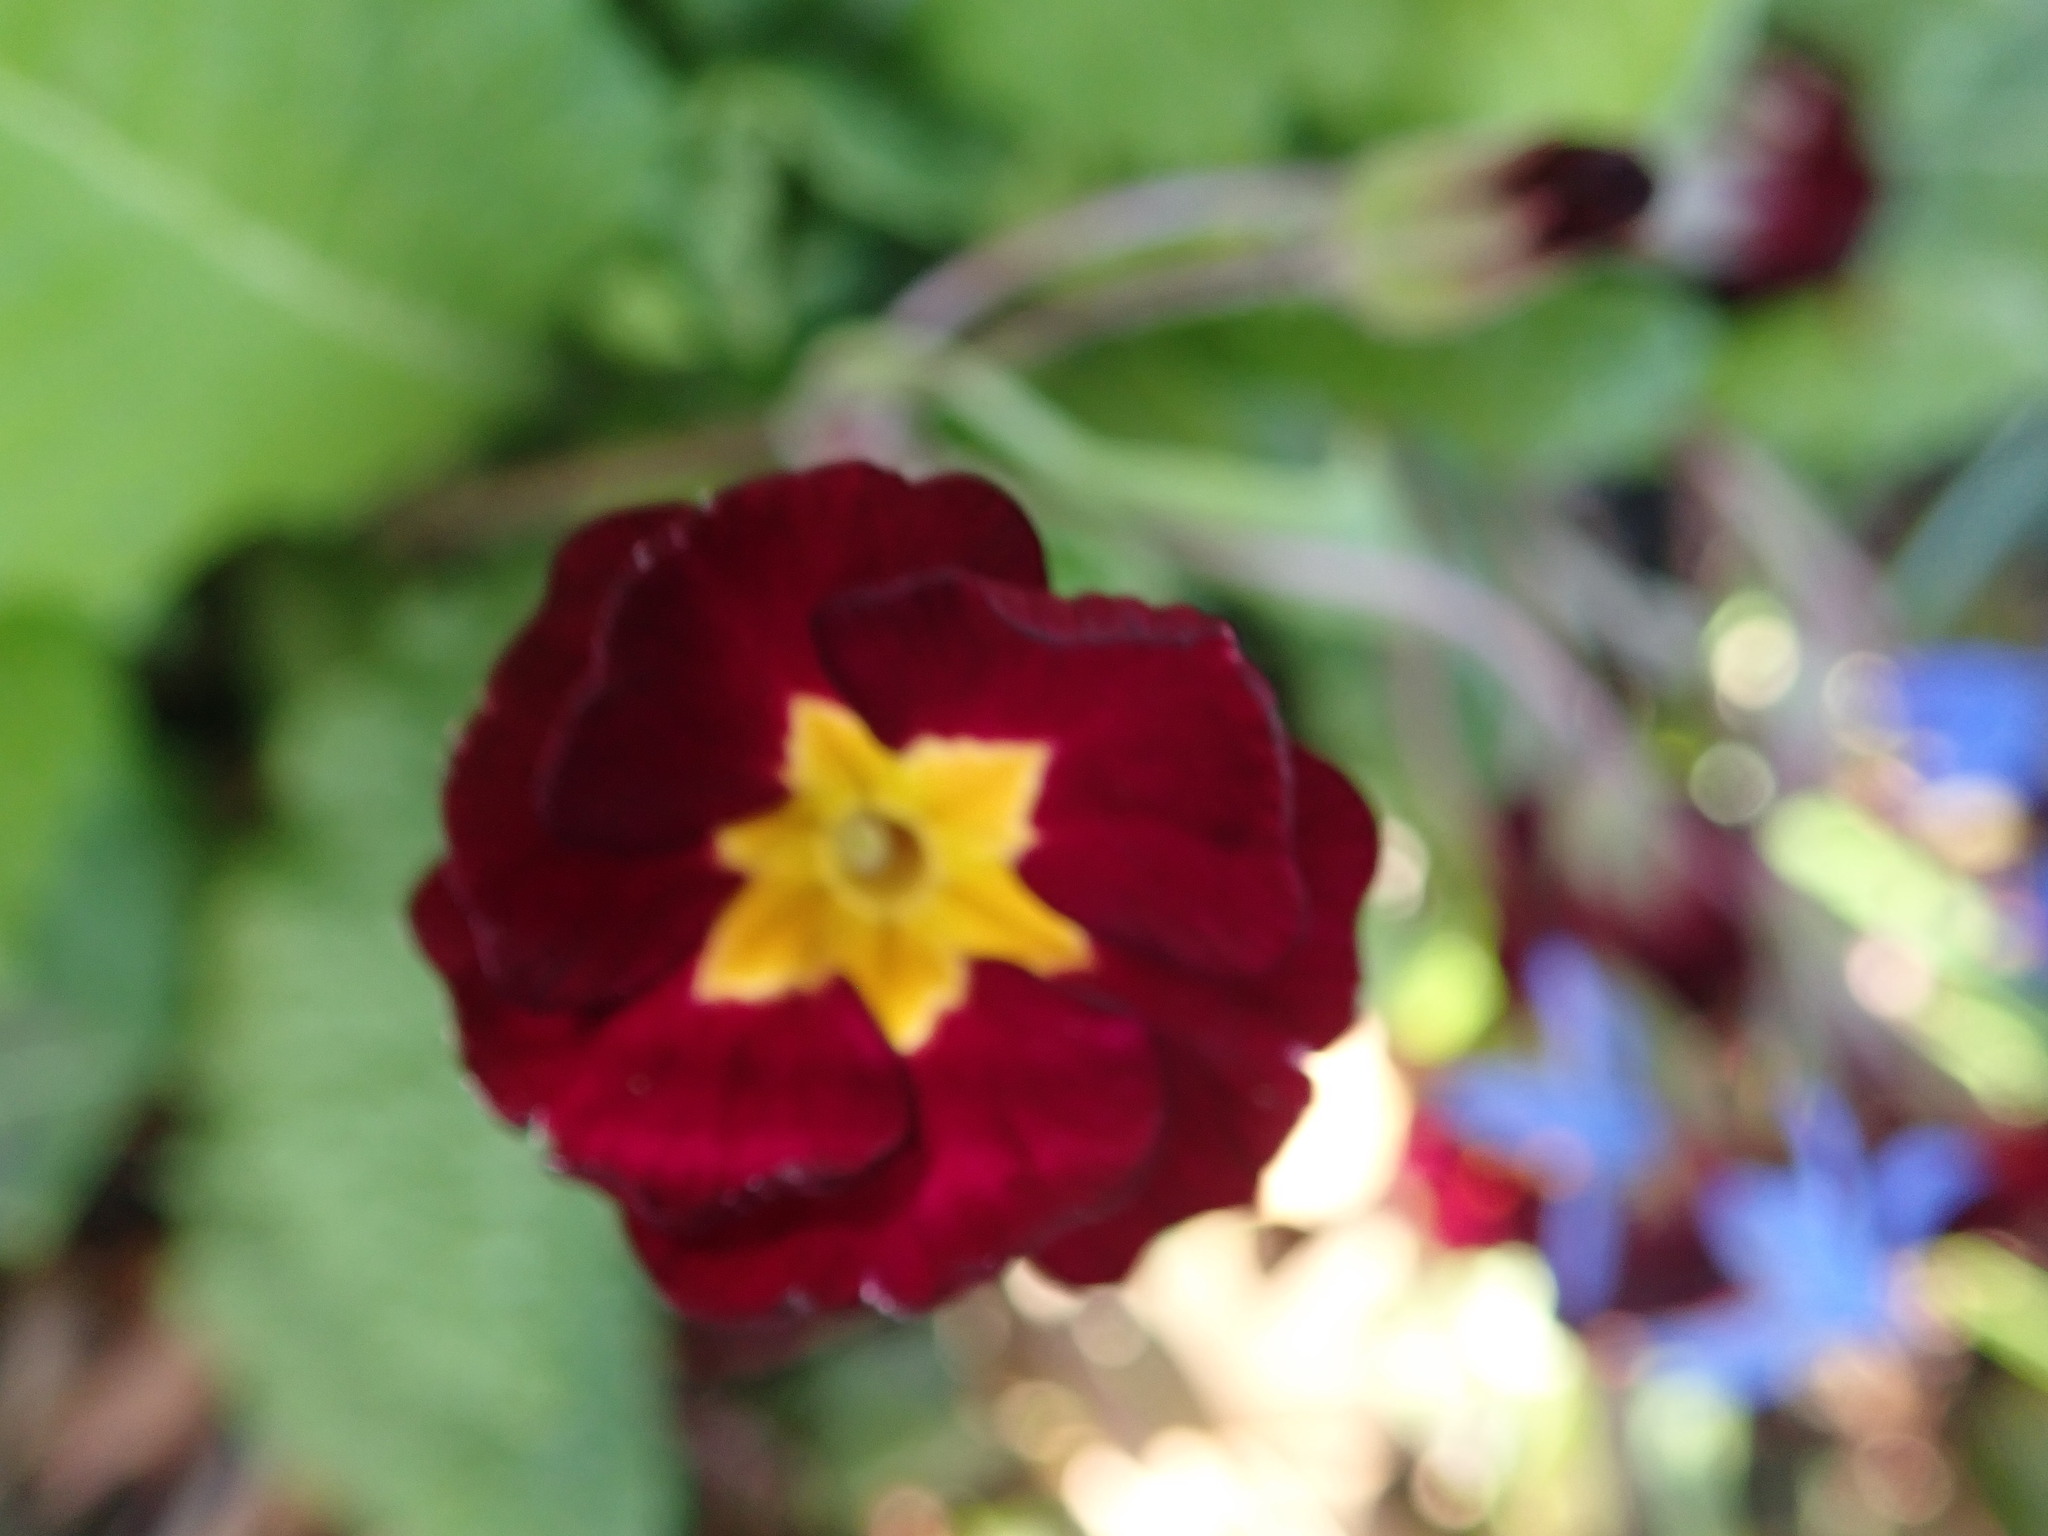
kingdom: Plantae
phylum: Tracheophyta
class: Magnoliopsida
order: Ericales
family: Primulaceae
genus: Primula
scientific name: Primula vulgaris
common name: Primrose
